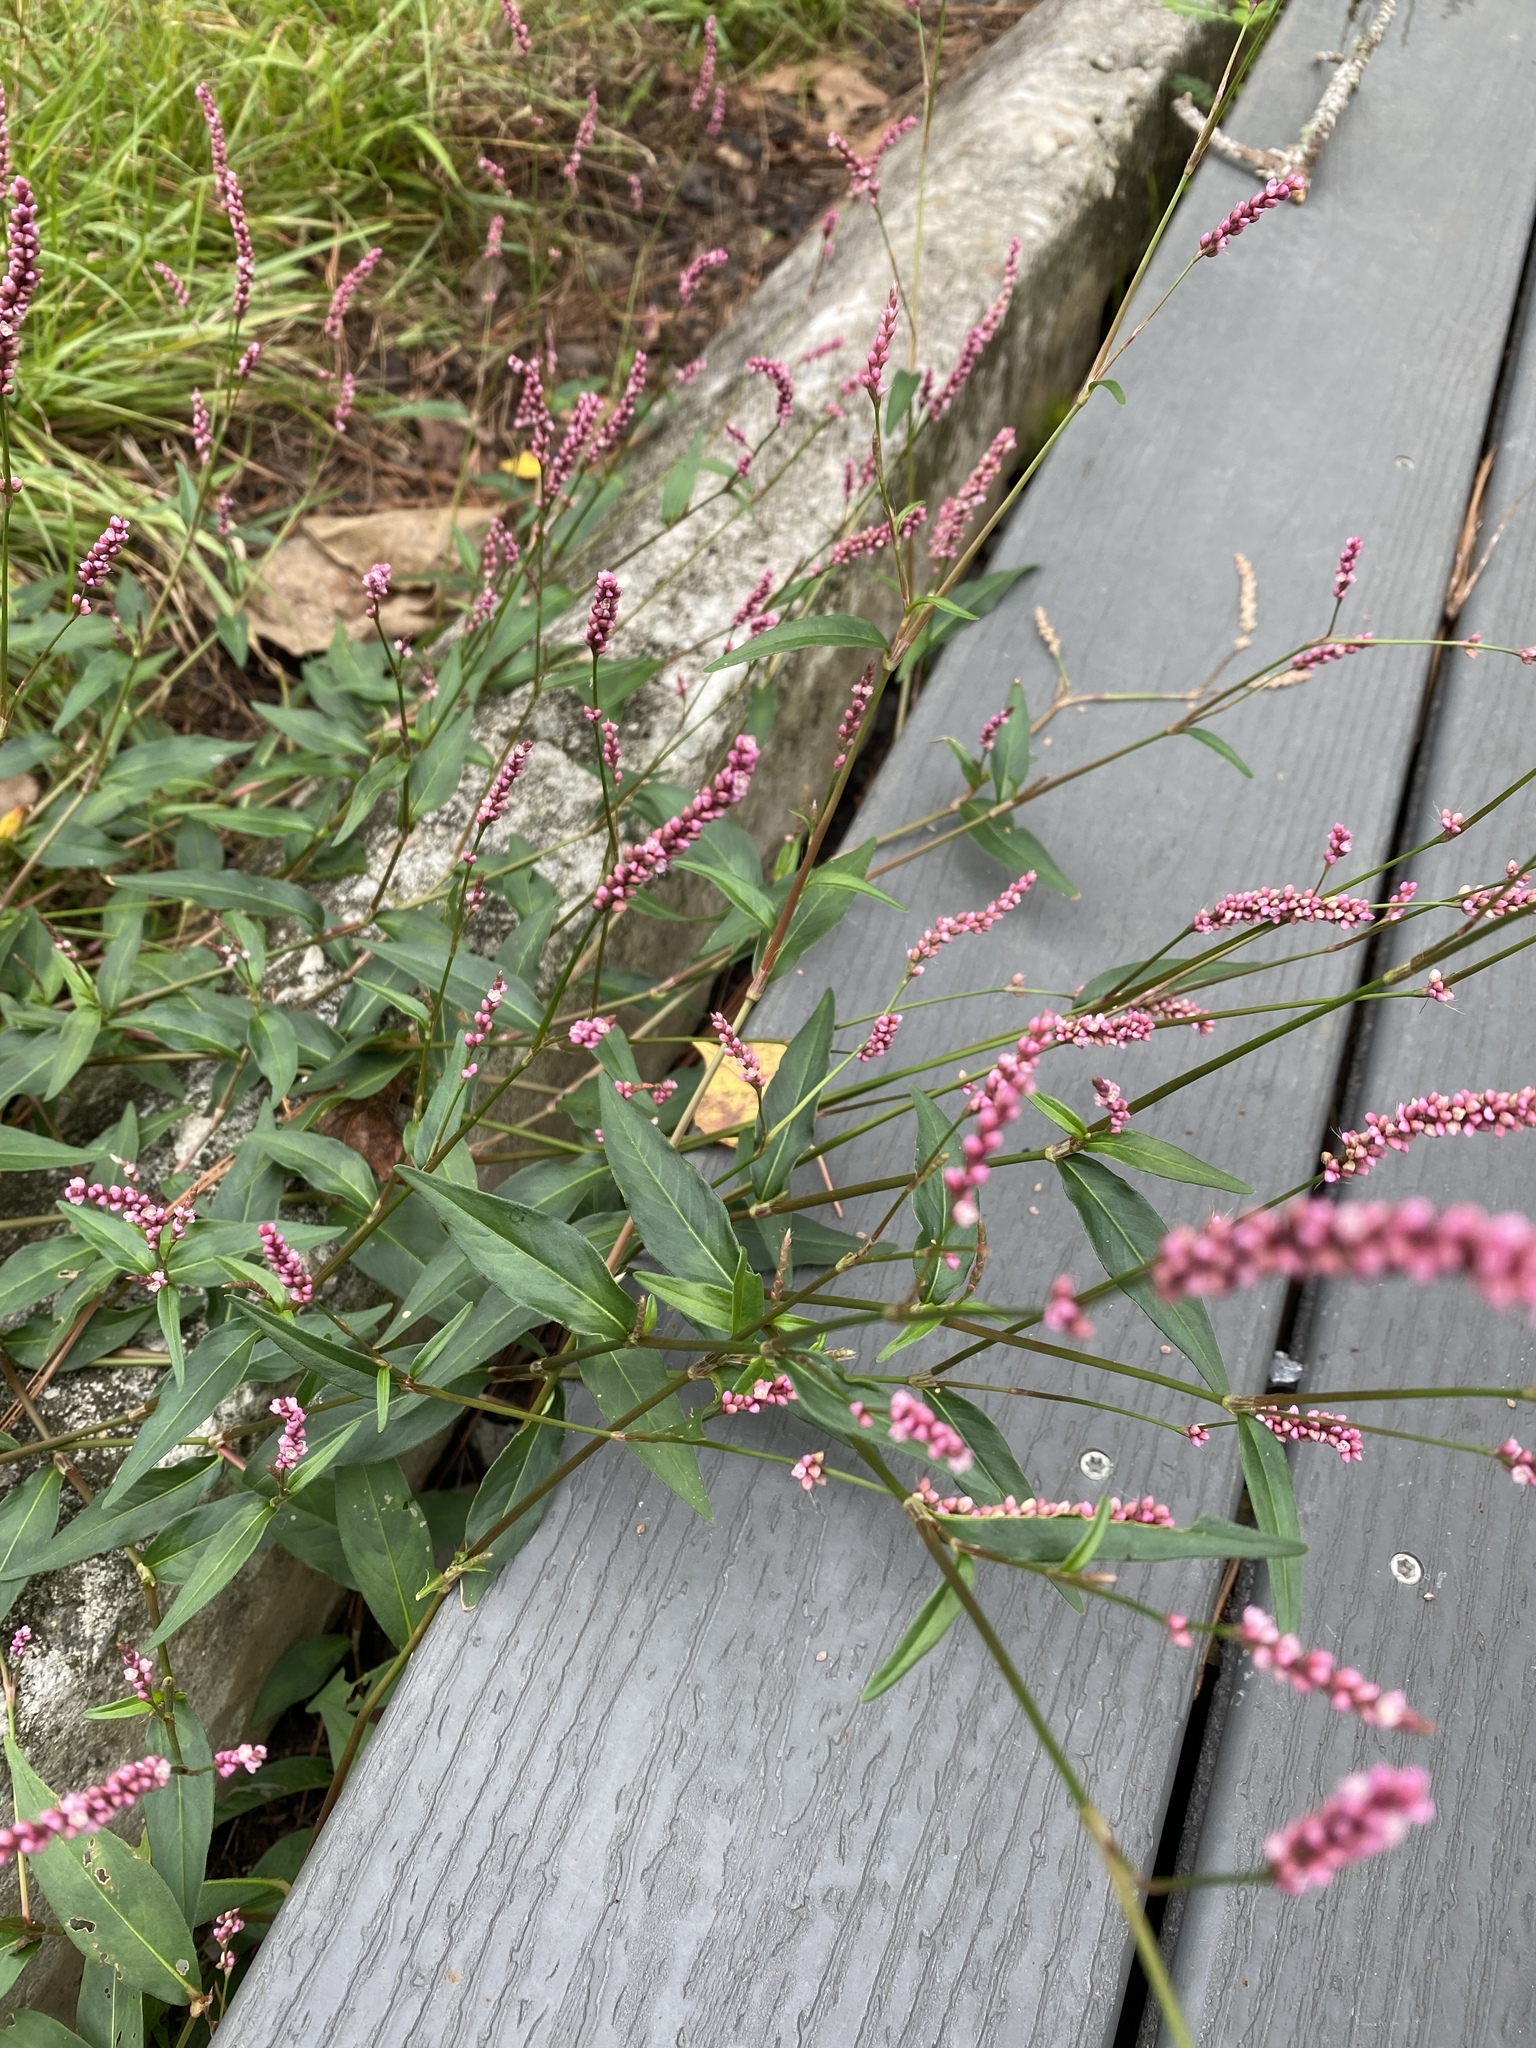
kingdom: Plantae
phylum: Tracheophyta
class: Magnoliopsida
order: Caryophyllales
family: Polygonaceae
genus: Persicaria
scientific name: Persicaria longiseta
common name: Bristly lady's-thumb
